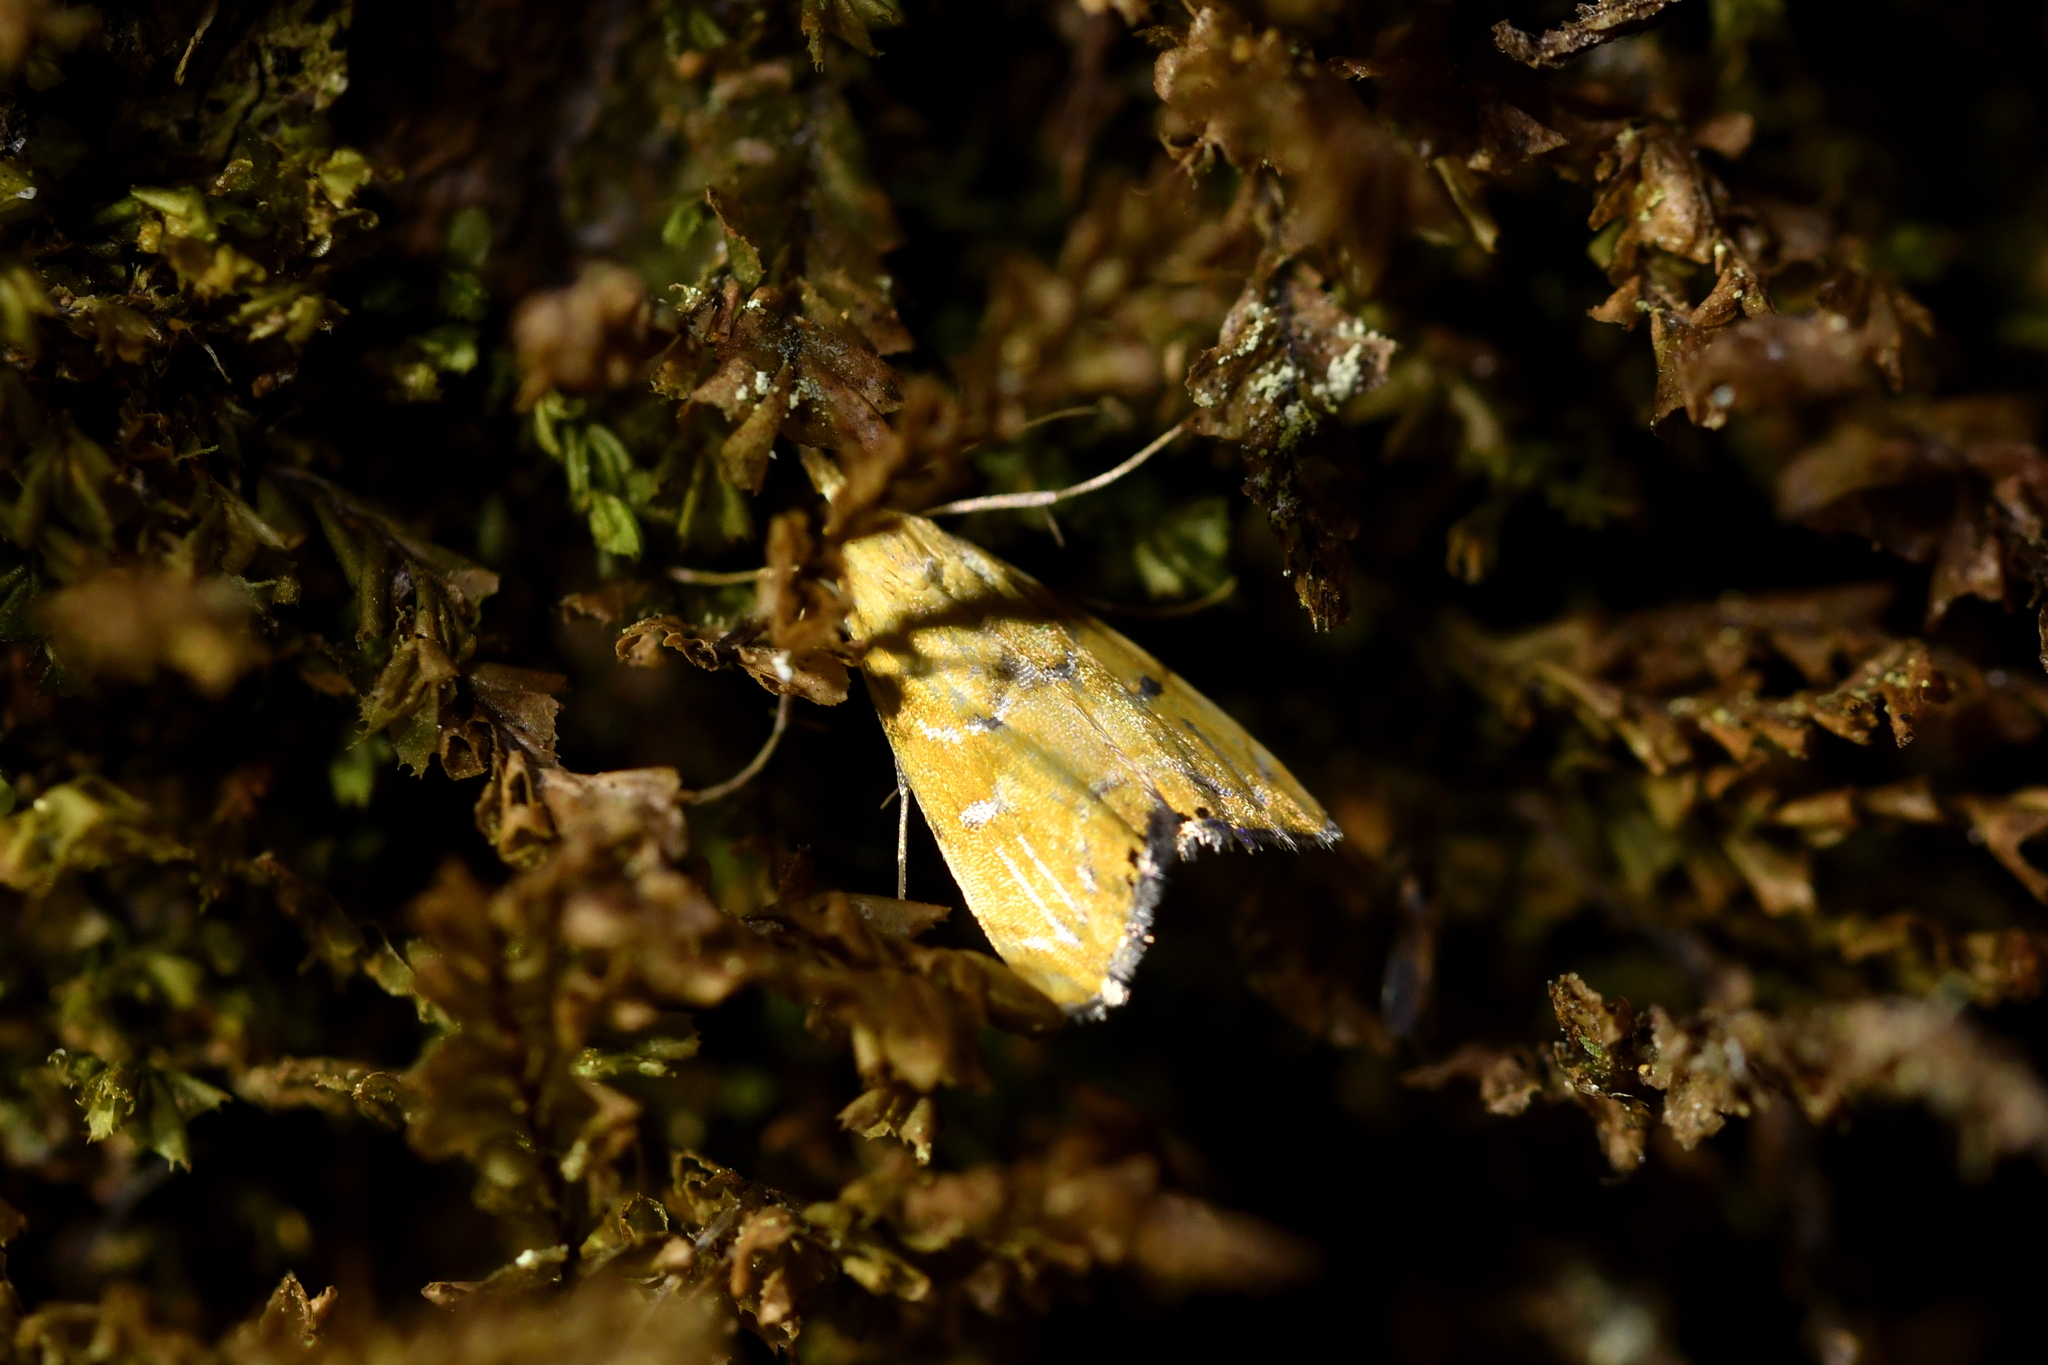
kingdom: Animalia
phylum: Arthropoda
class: Insecta
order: Lepidoptera
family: Crambidae
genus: Glaucocharis
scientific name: Glaucocharis auriscriptella
